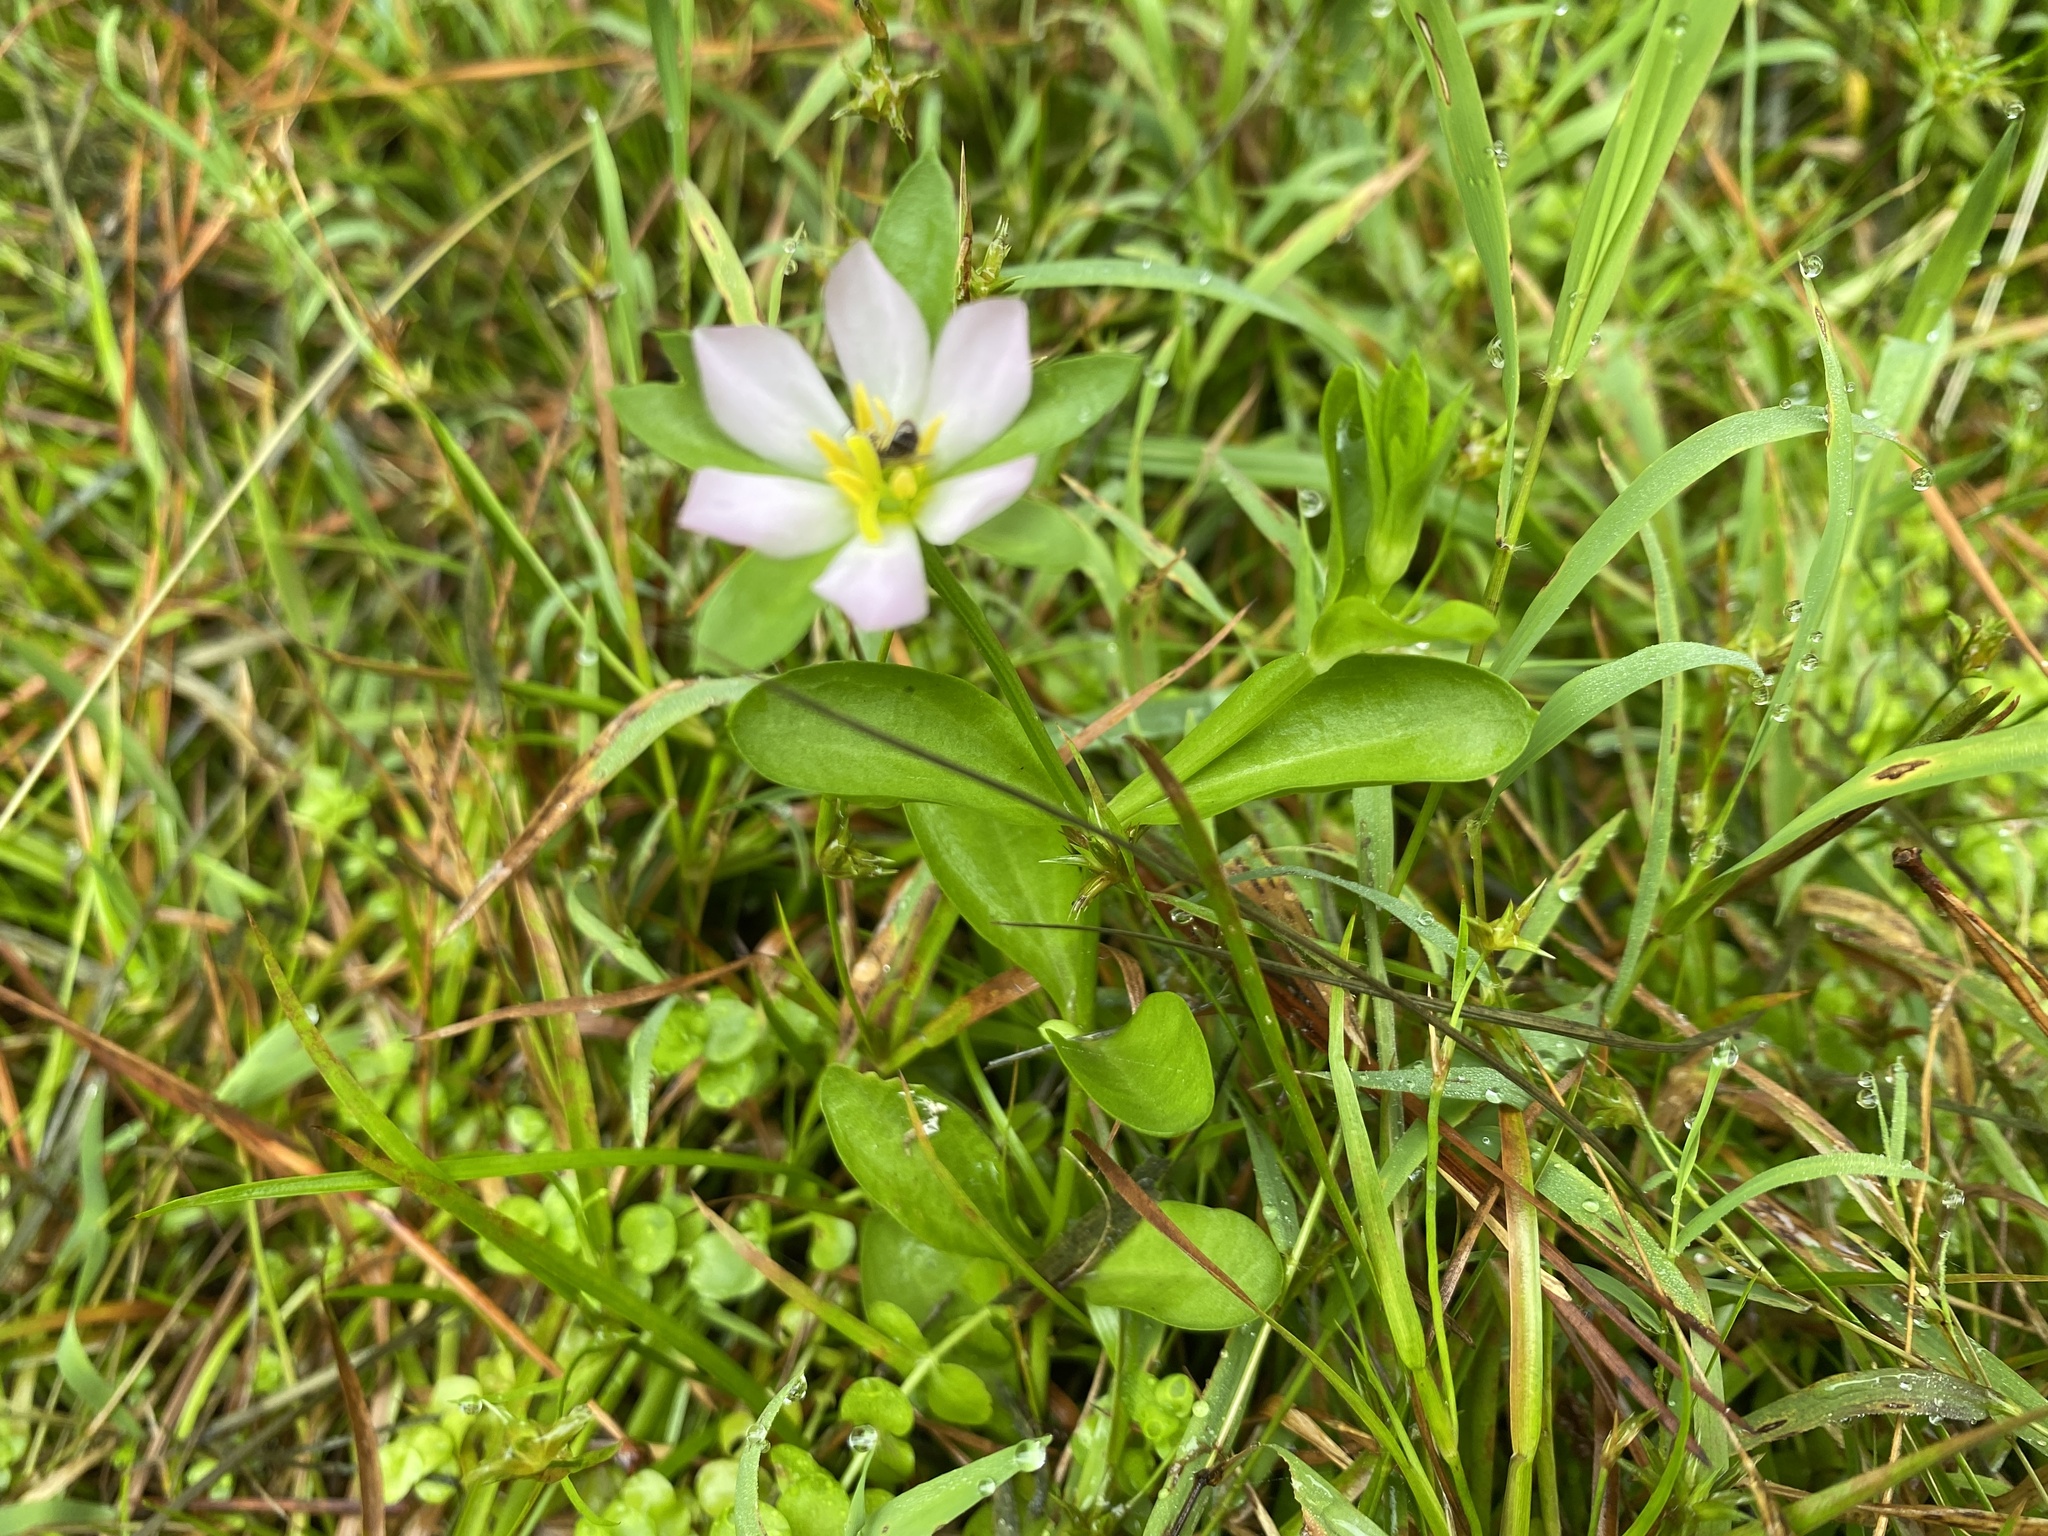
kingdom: Plantae
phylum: Tracheophyta
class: Magnoliopsida
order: Gentianales
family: Gentianaceae
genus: Sabatia
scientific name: Sabatia calycina
